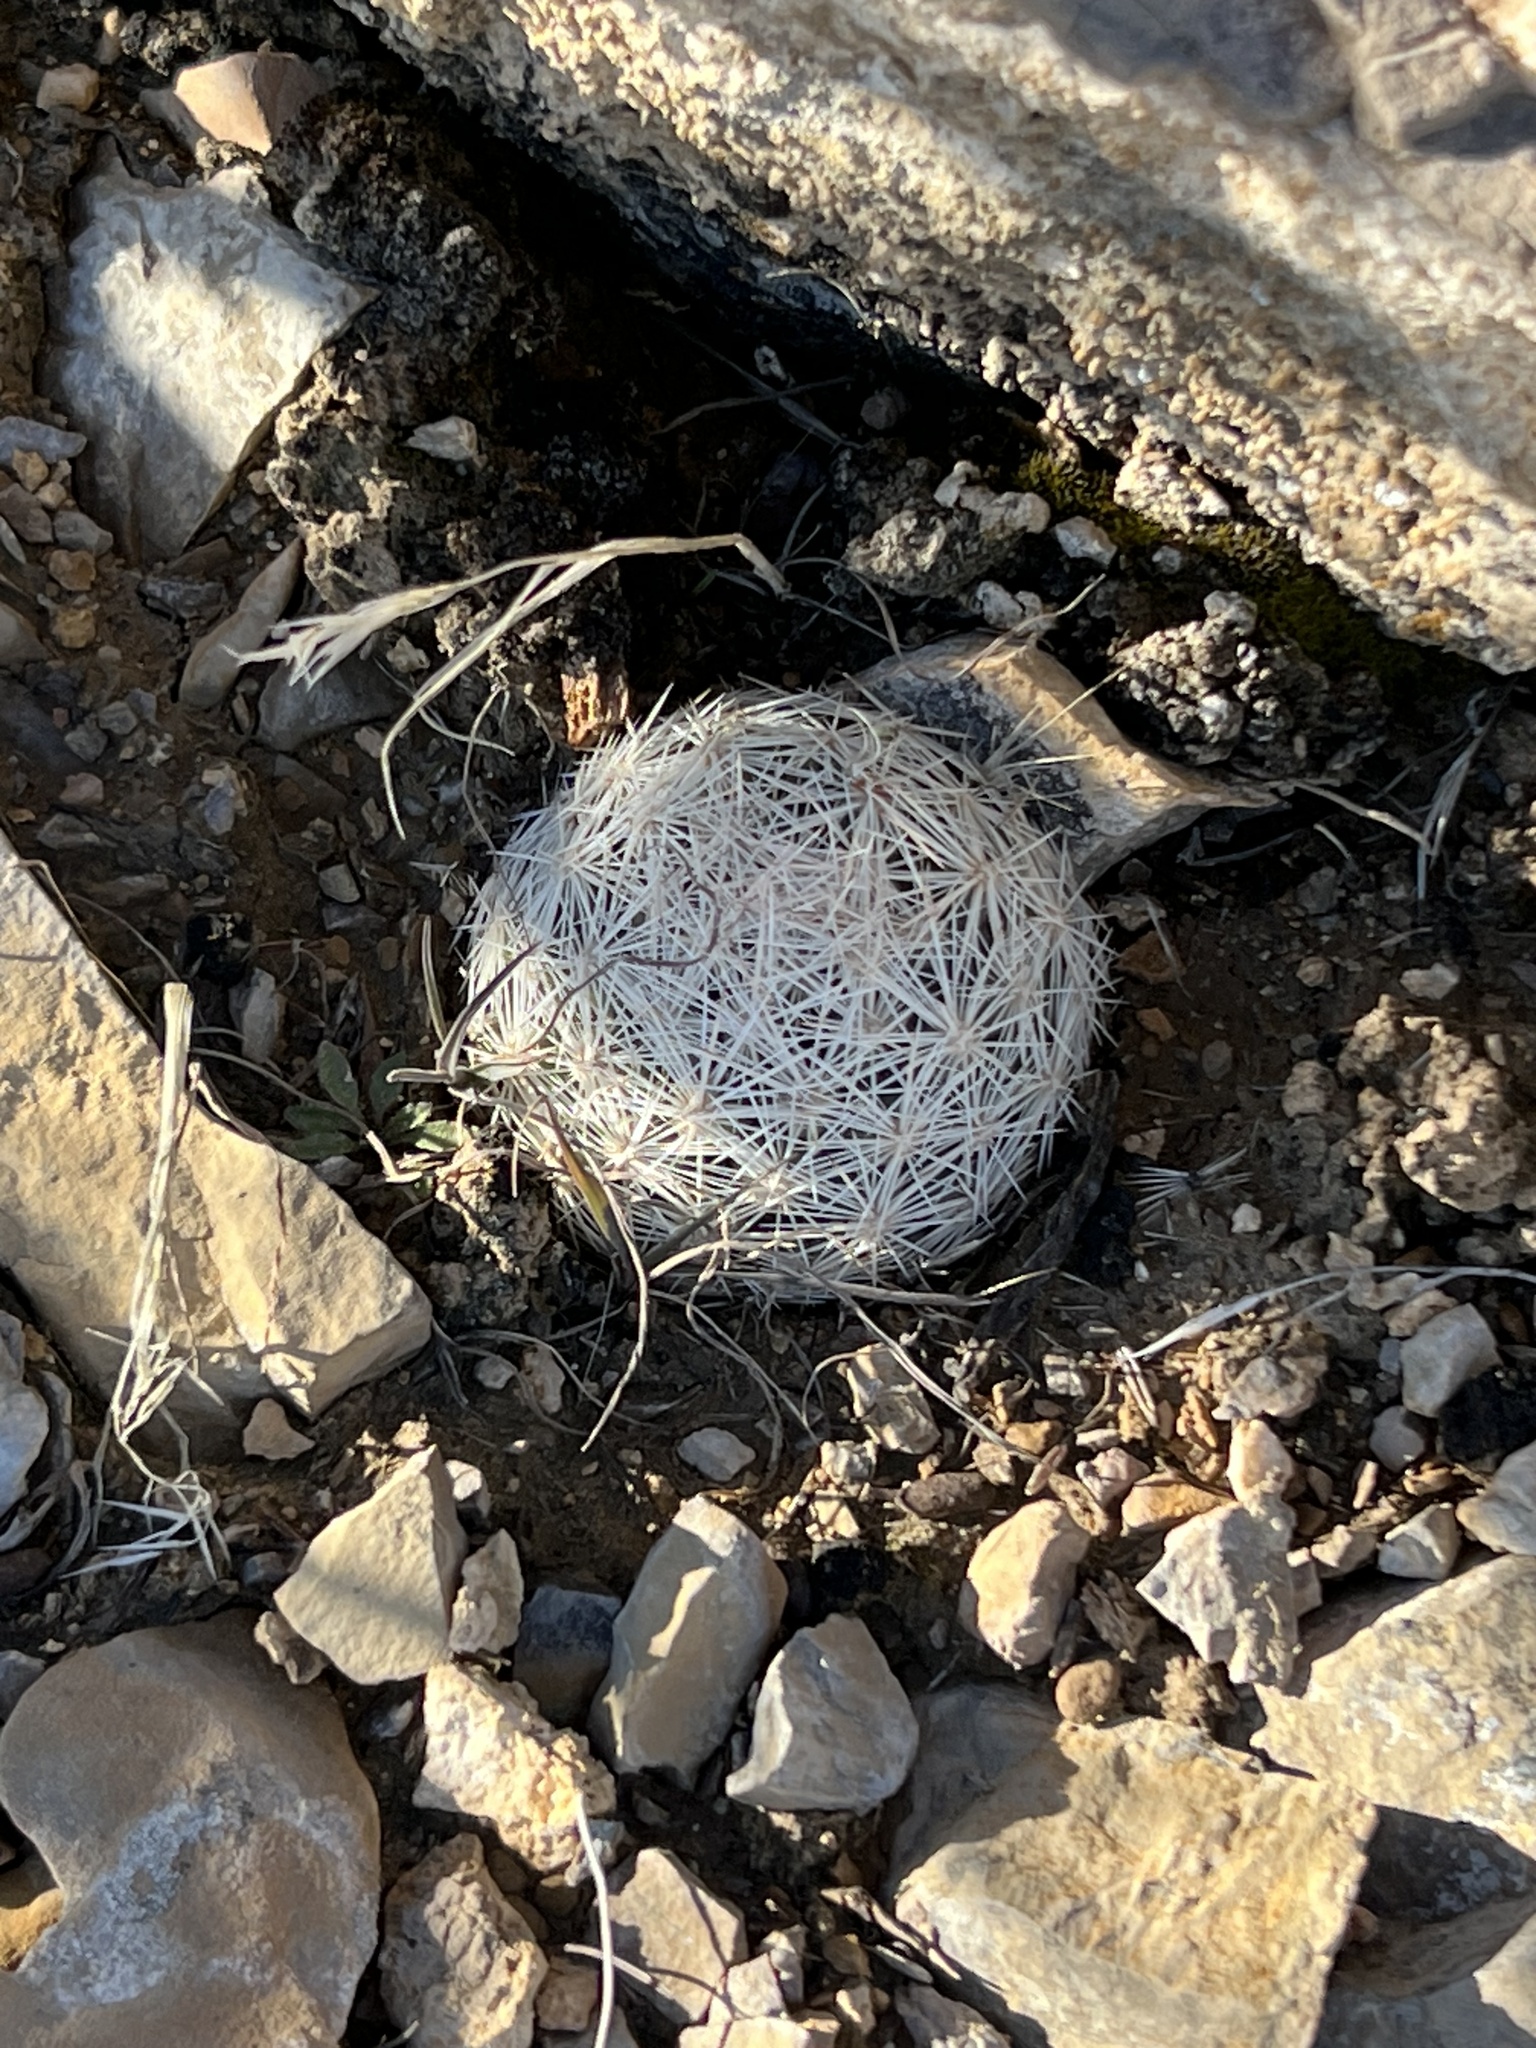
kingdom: Plantae
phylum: Tracheophyta
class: Magnoliopsida
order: Caryophyllales
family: Cactaceae
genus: Pelecyphora
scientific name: Pelecyphora dasyacantha
